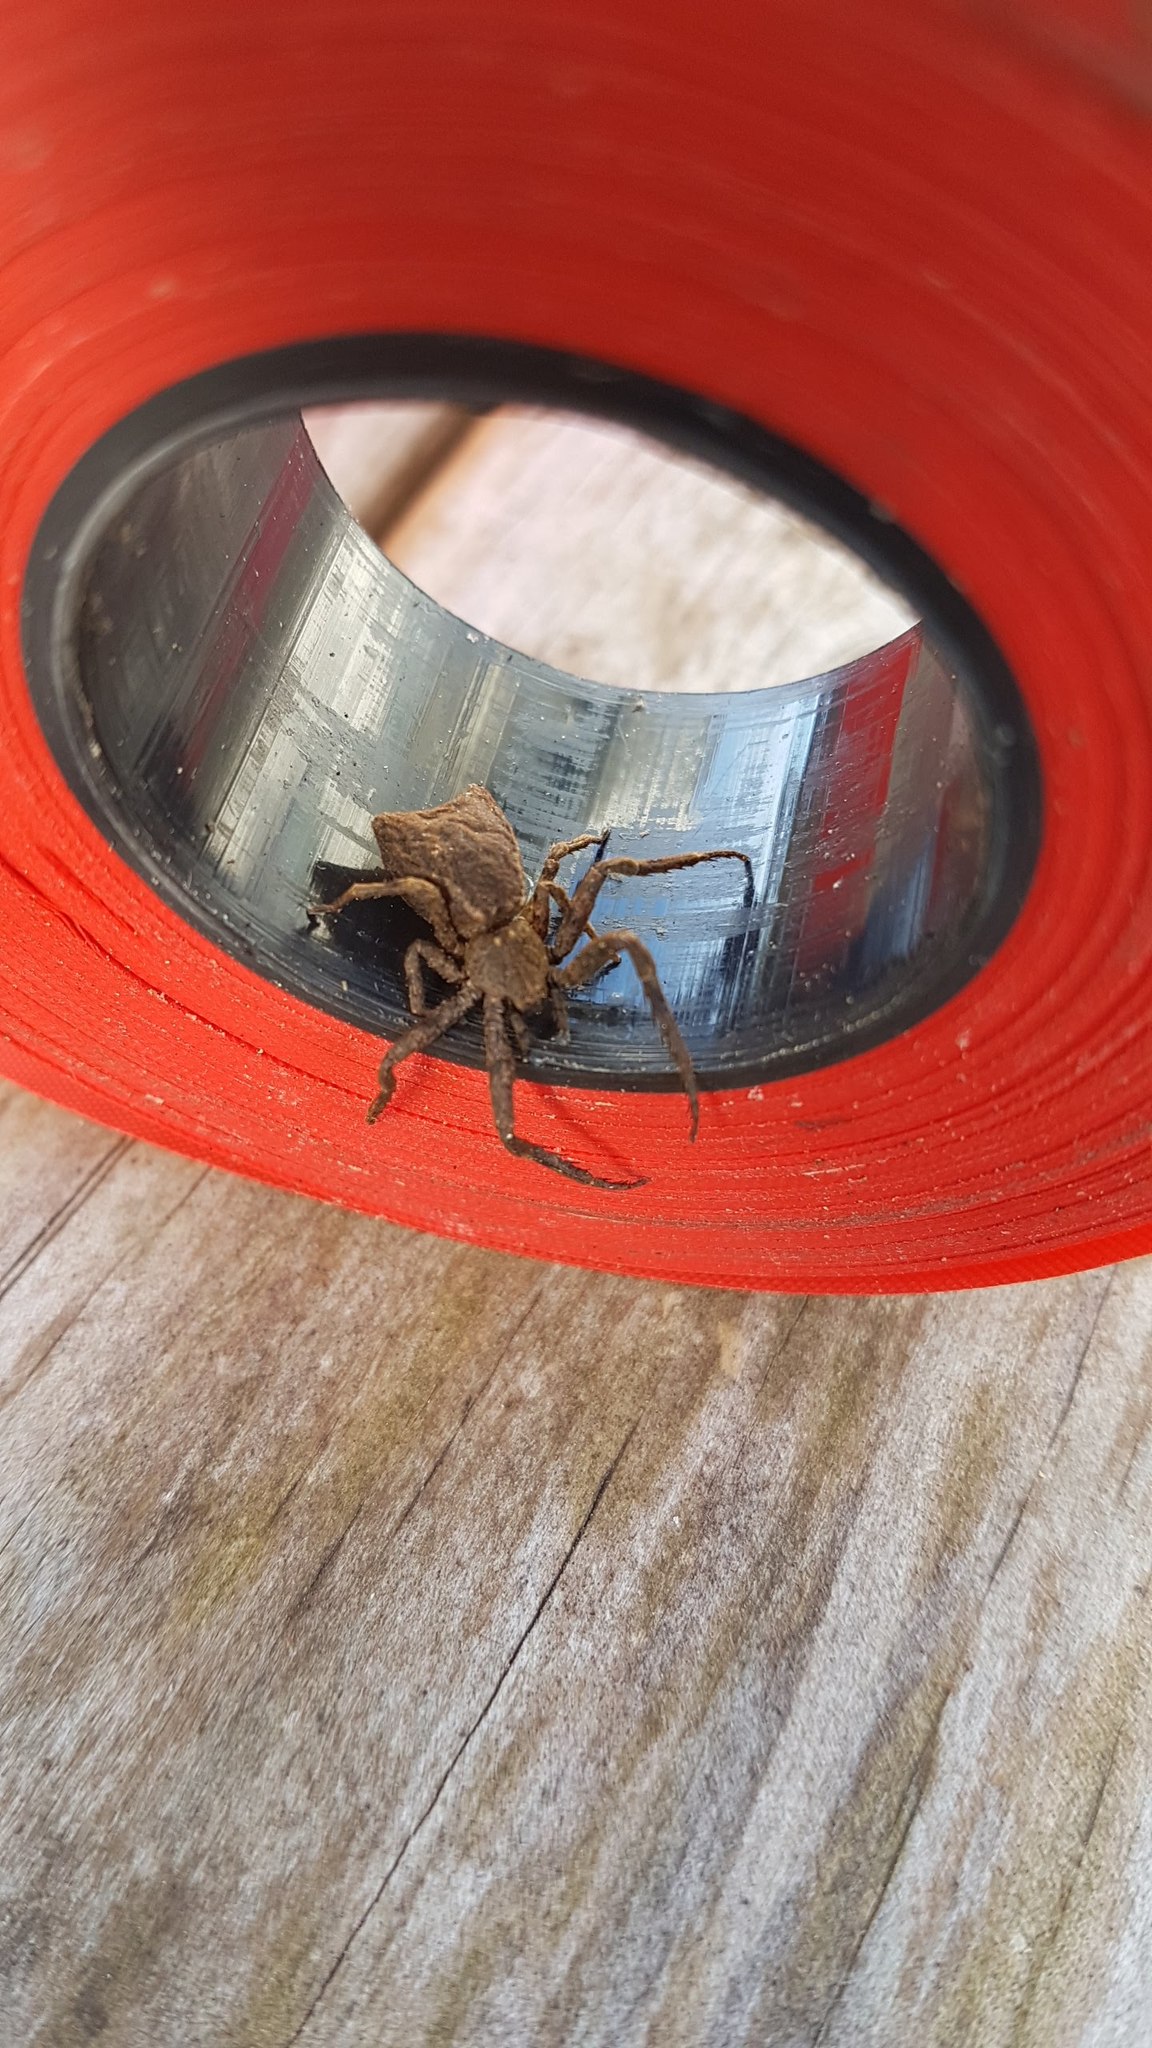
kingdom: Animalia
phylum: Arthropoda
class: Arachnida
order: Araneae
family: Thomisidae
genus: Sidymella
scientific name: Sidymella angularis
